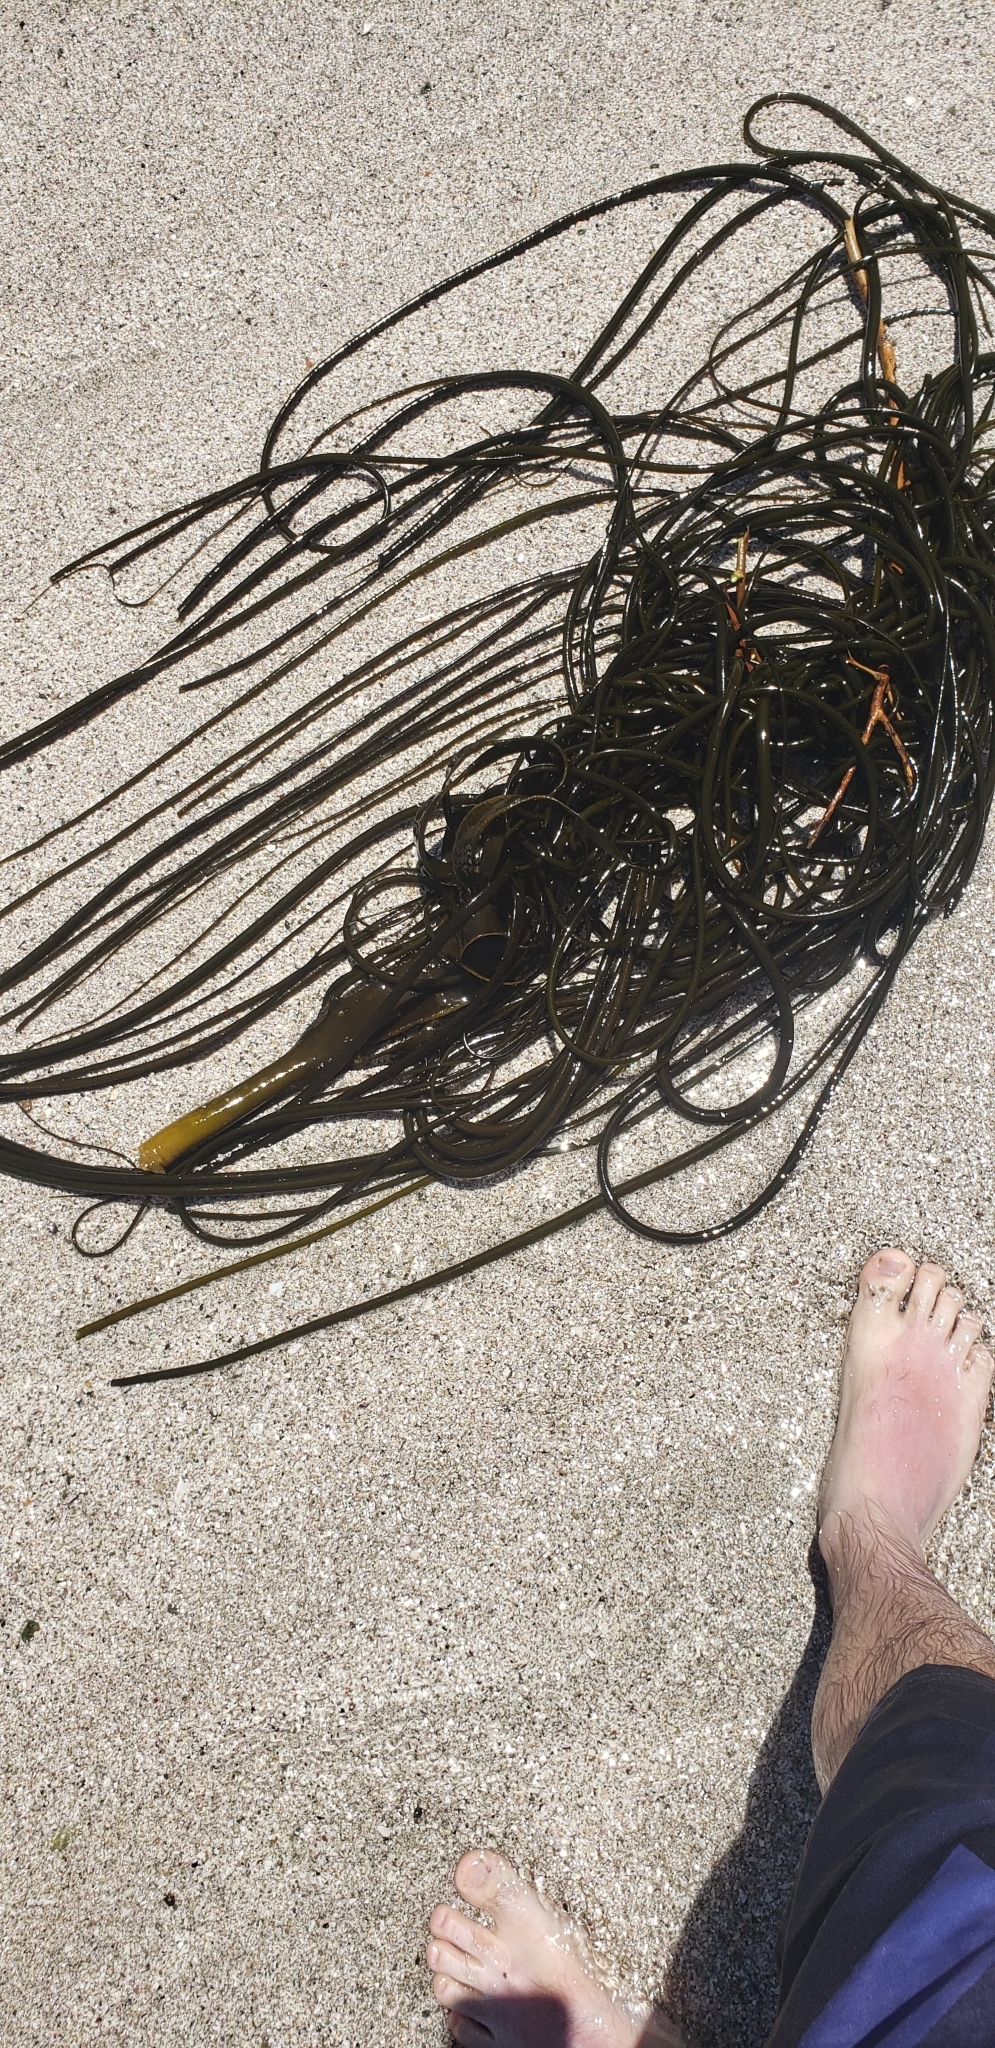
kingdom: Chromista
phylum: Ochrophyta
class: Phaeophyceae
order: Fucales
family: Durvillaeaceae
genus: Durvillaea
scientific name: Durvillaea
